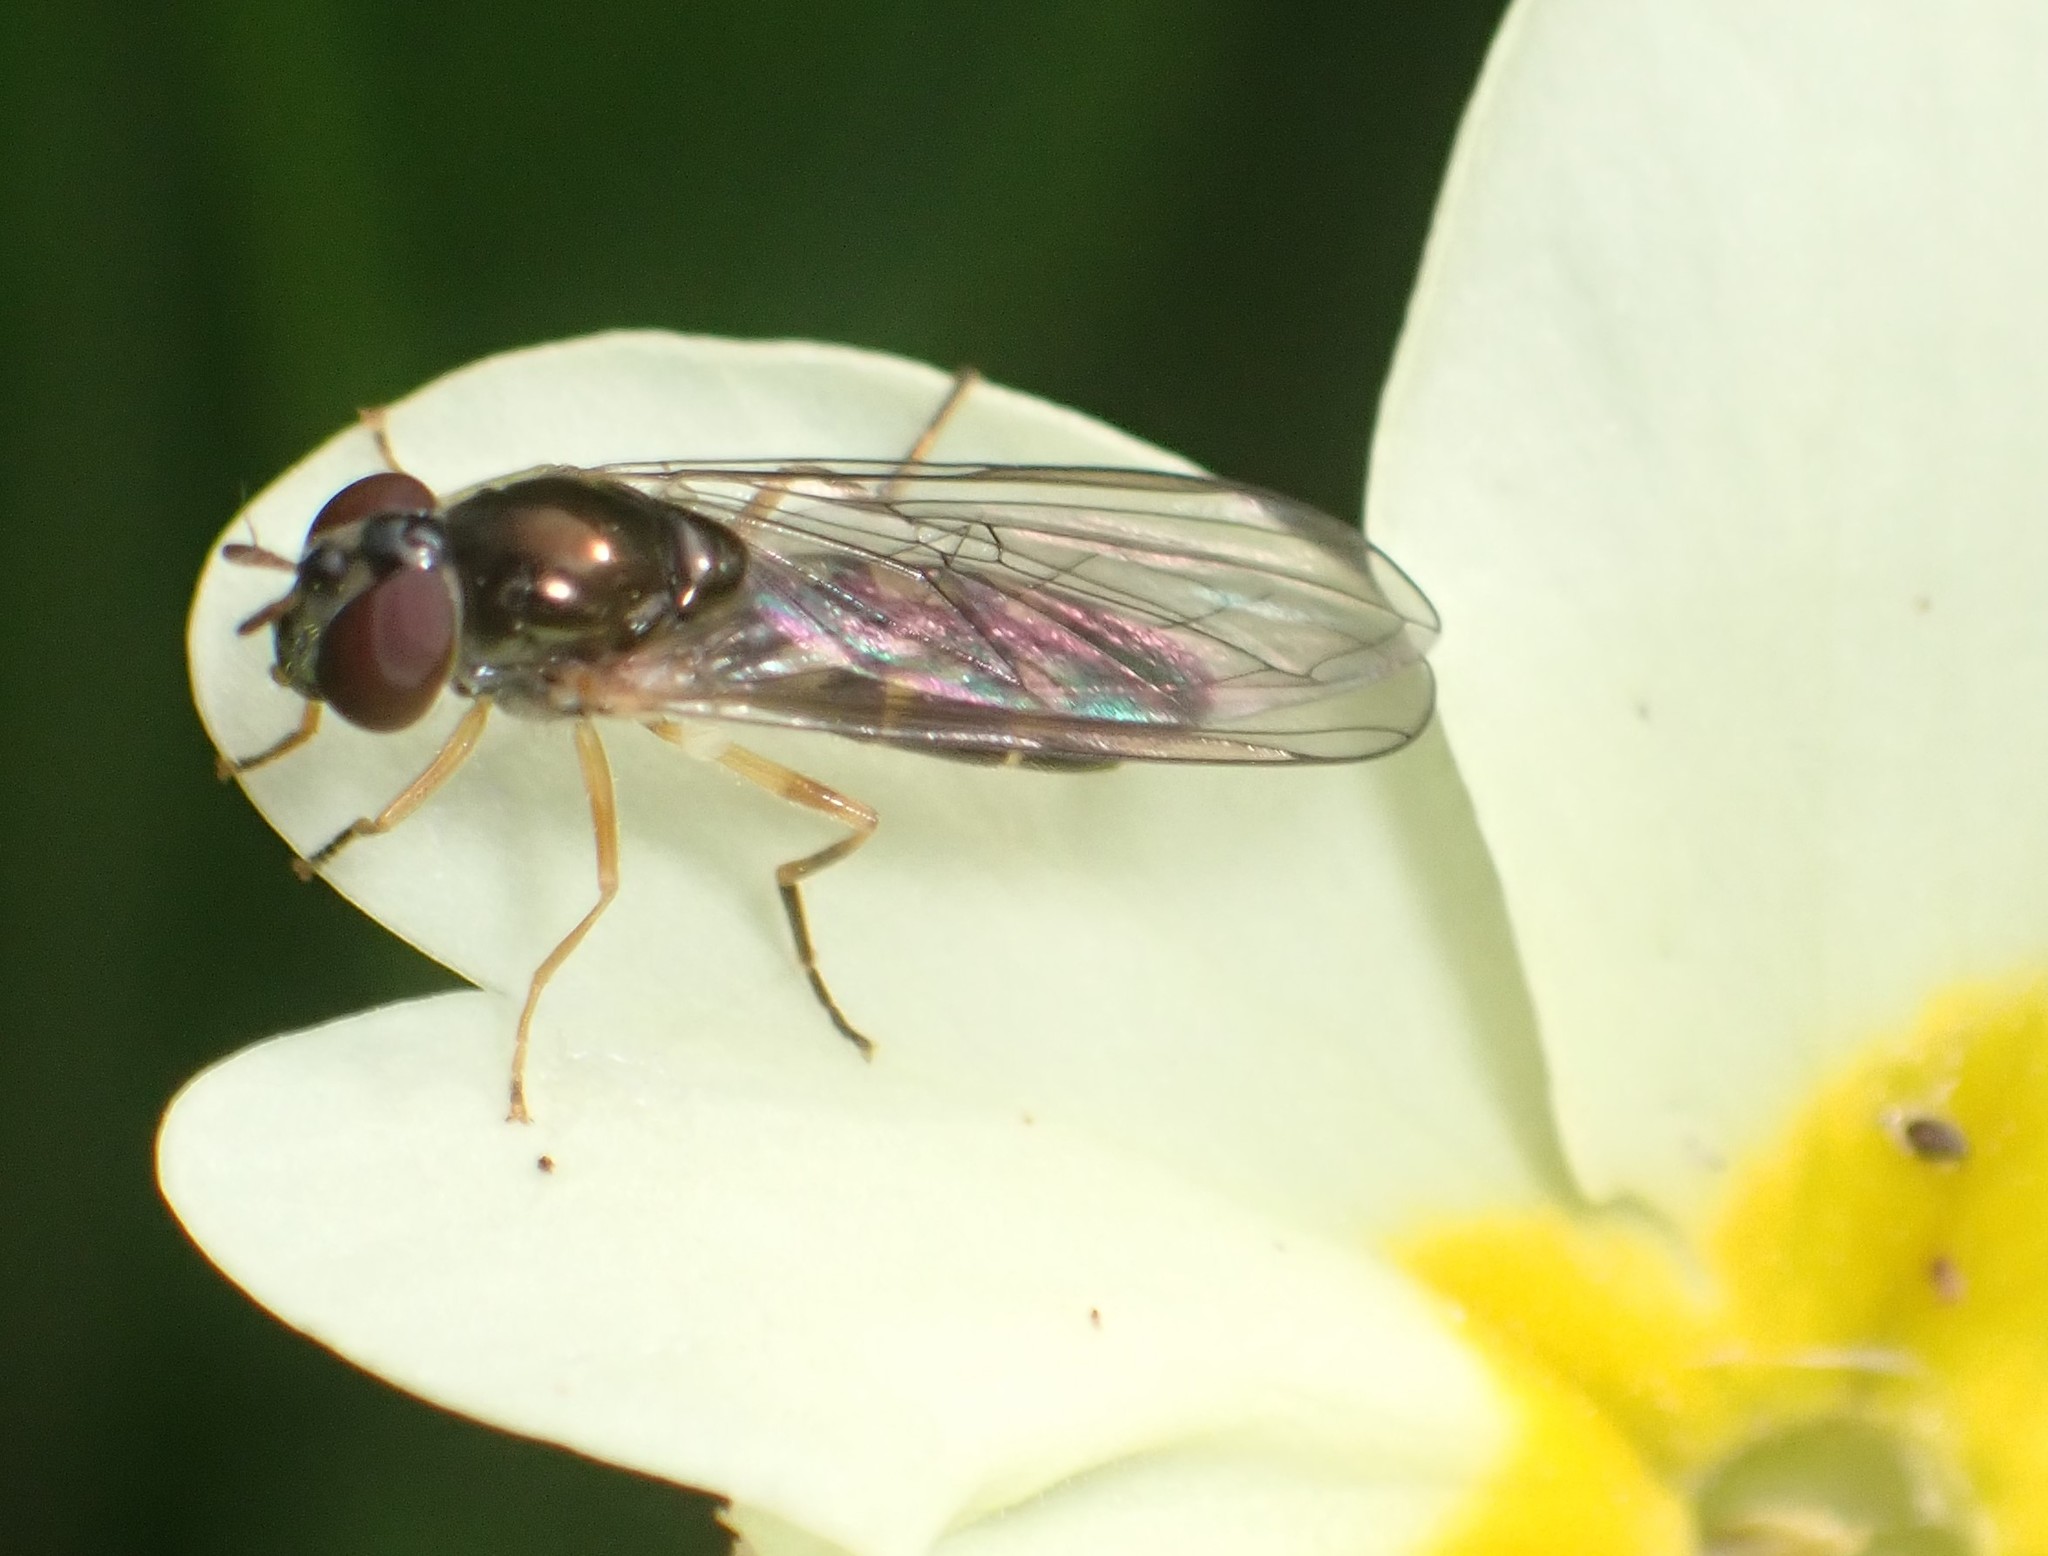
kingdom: Animalia
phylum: Arthropoda
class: Insecta
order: Diptera
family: Syrphidae
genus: Melanostoma
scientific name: Melanostoma scalare
